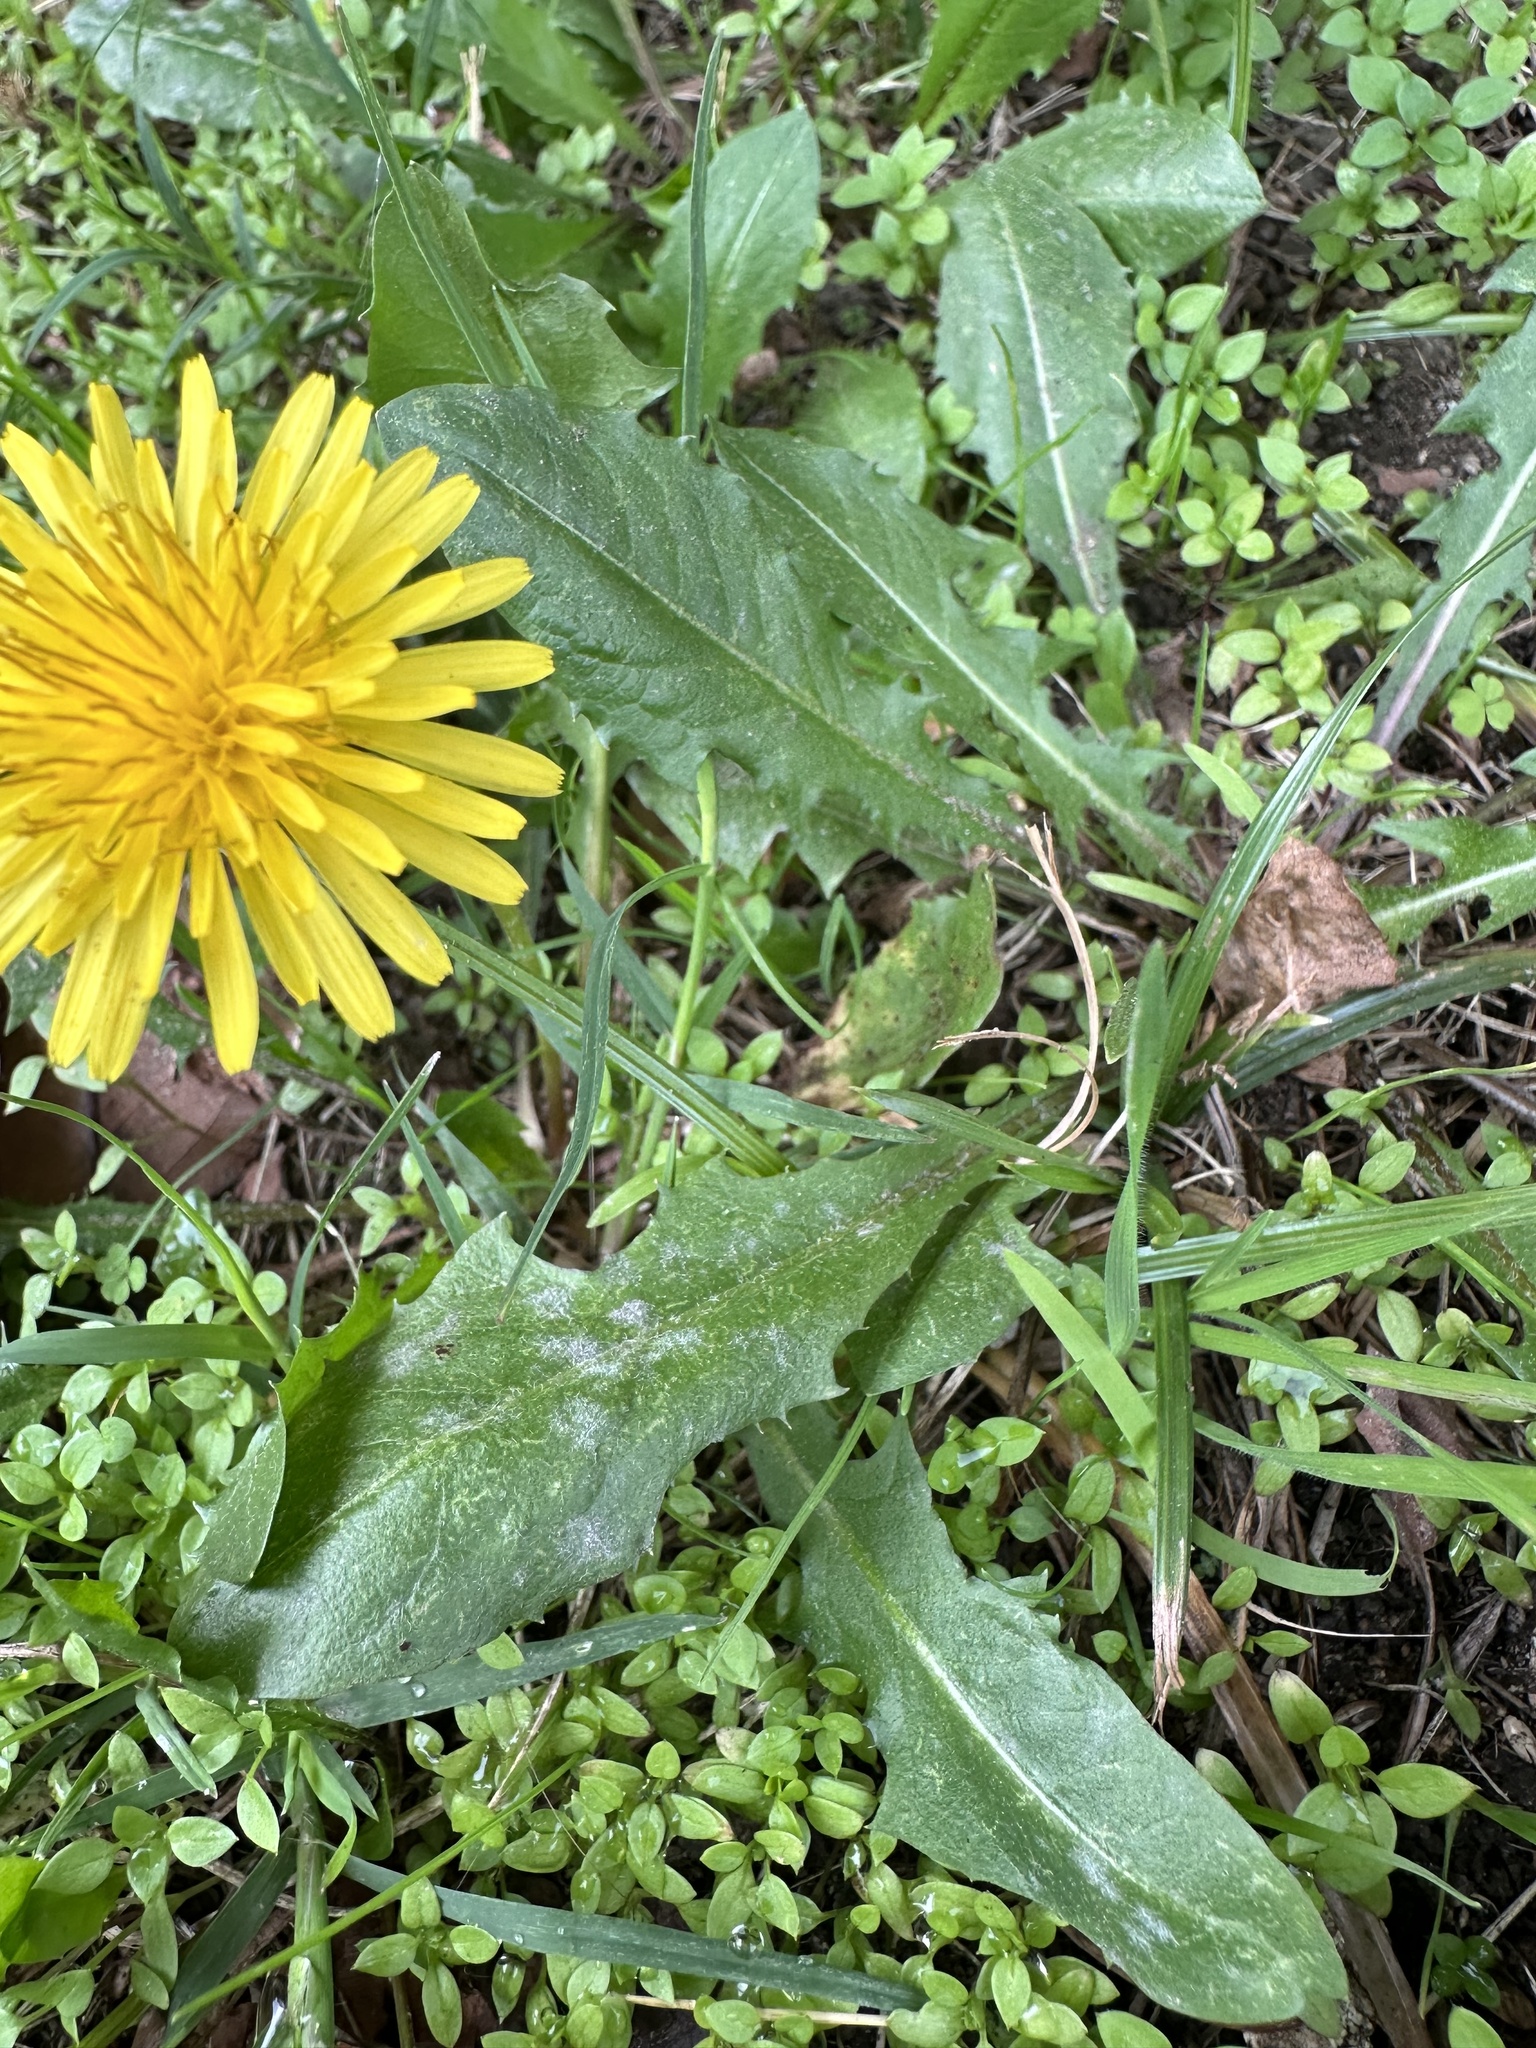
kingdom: Plantae
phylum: Tracheophyta
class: Magnoliopsida
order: Asterales
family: Asteraceae
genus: Taraxacum
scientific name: Taraxacum
